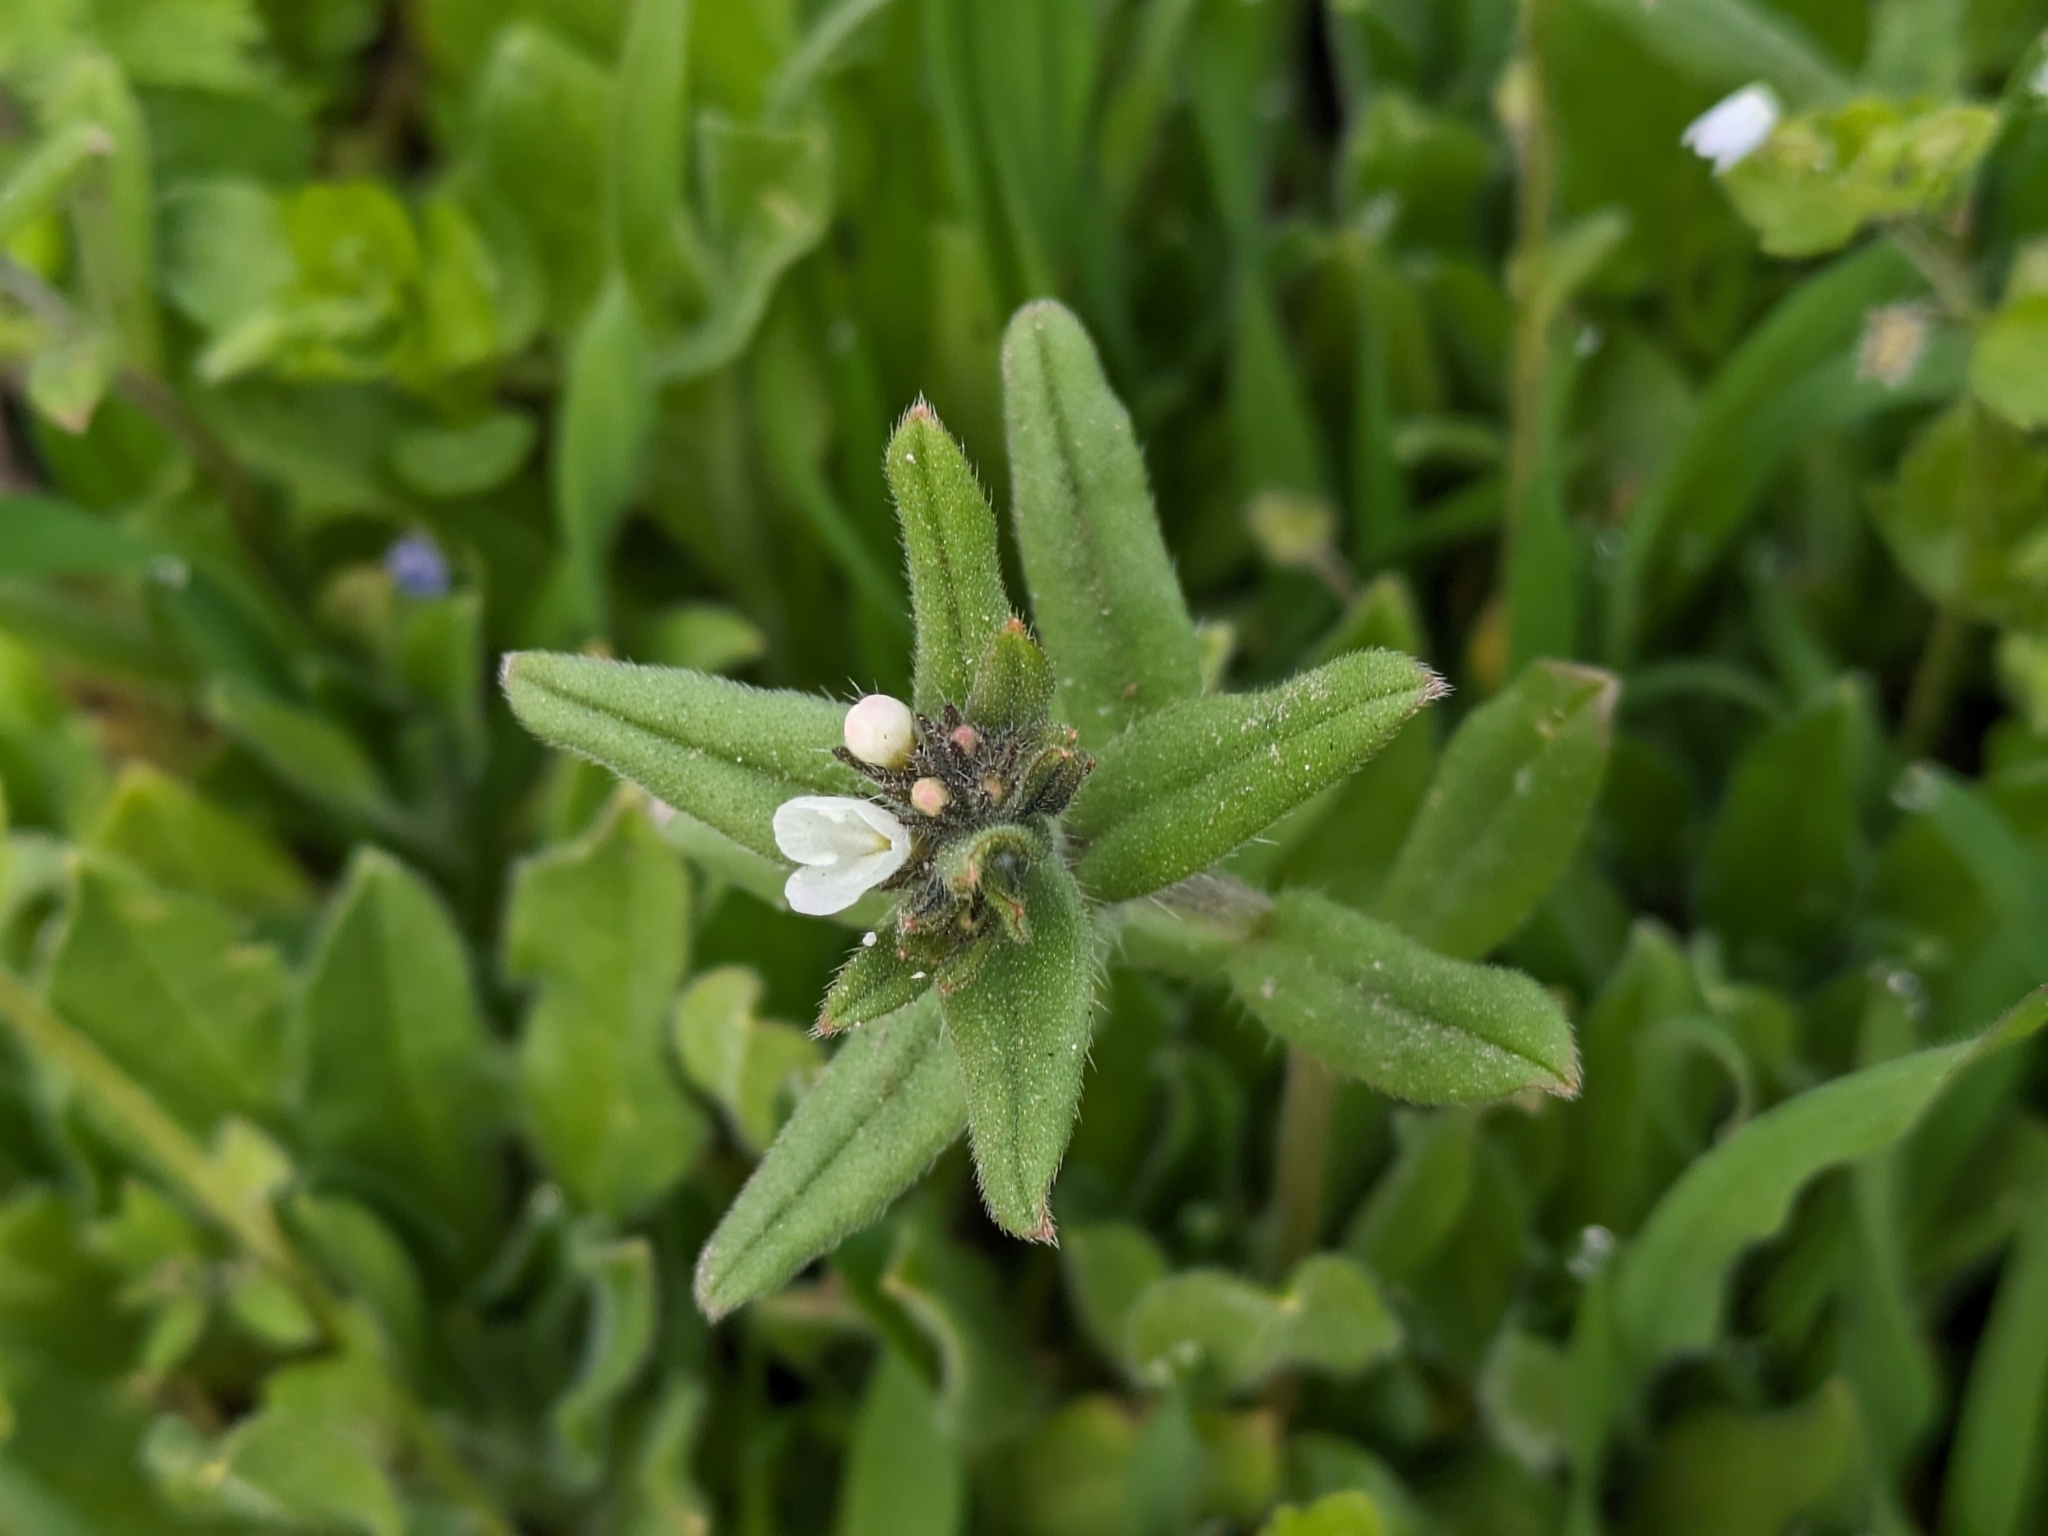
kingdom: Plantae
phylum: Tracheophyta
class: Magnoliopsida
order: Boraginales
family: Boraginaceae
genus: Buglossoides
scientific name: Buglossoides arvensis
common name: Corn gromwell
